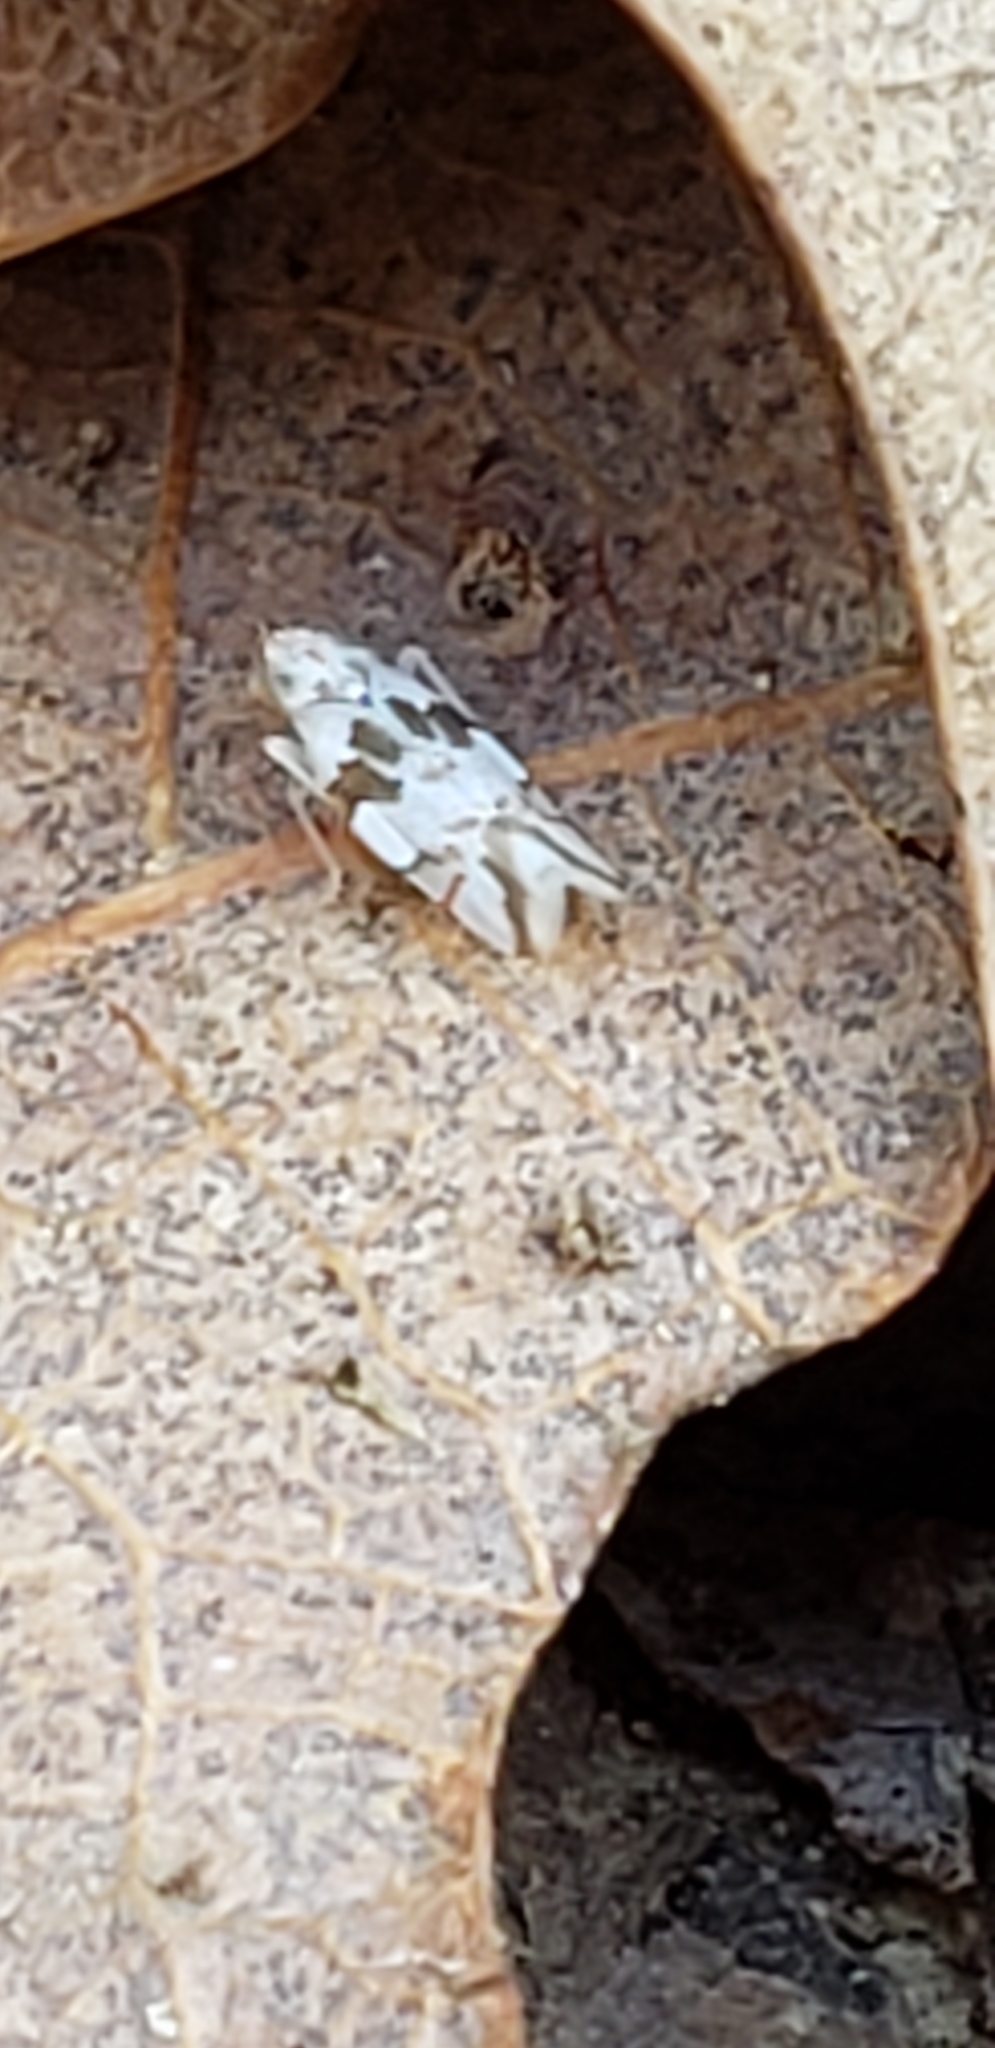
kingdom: Animalia
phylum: Arthropoda
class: Insecta
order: Hemiptera
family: Cicadellidae
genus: Hymetta
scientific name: Hymetta balteata
